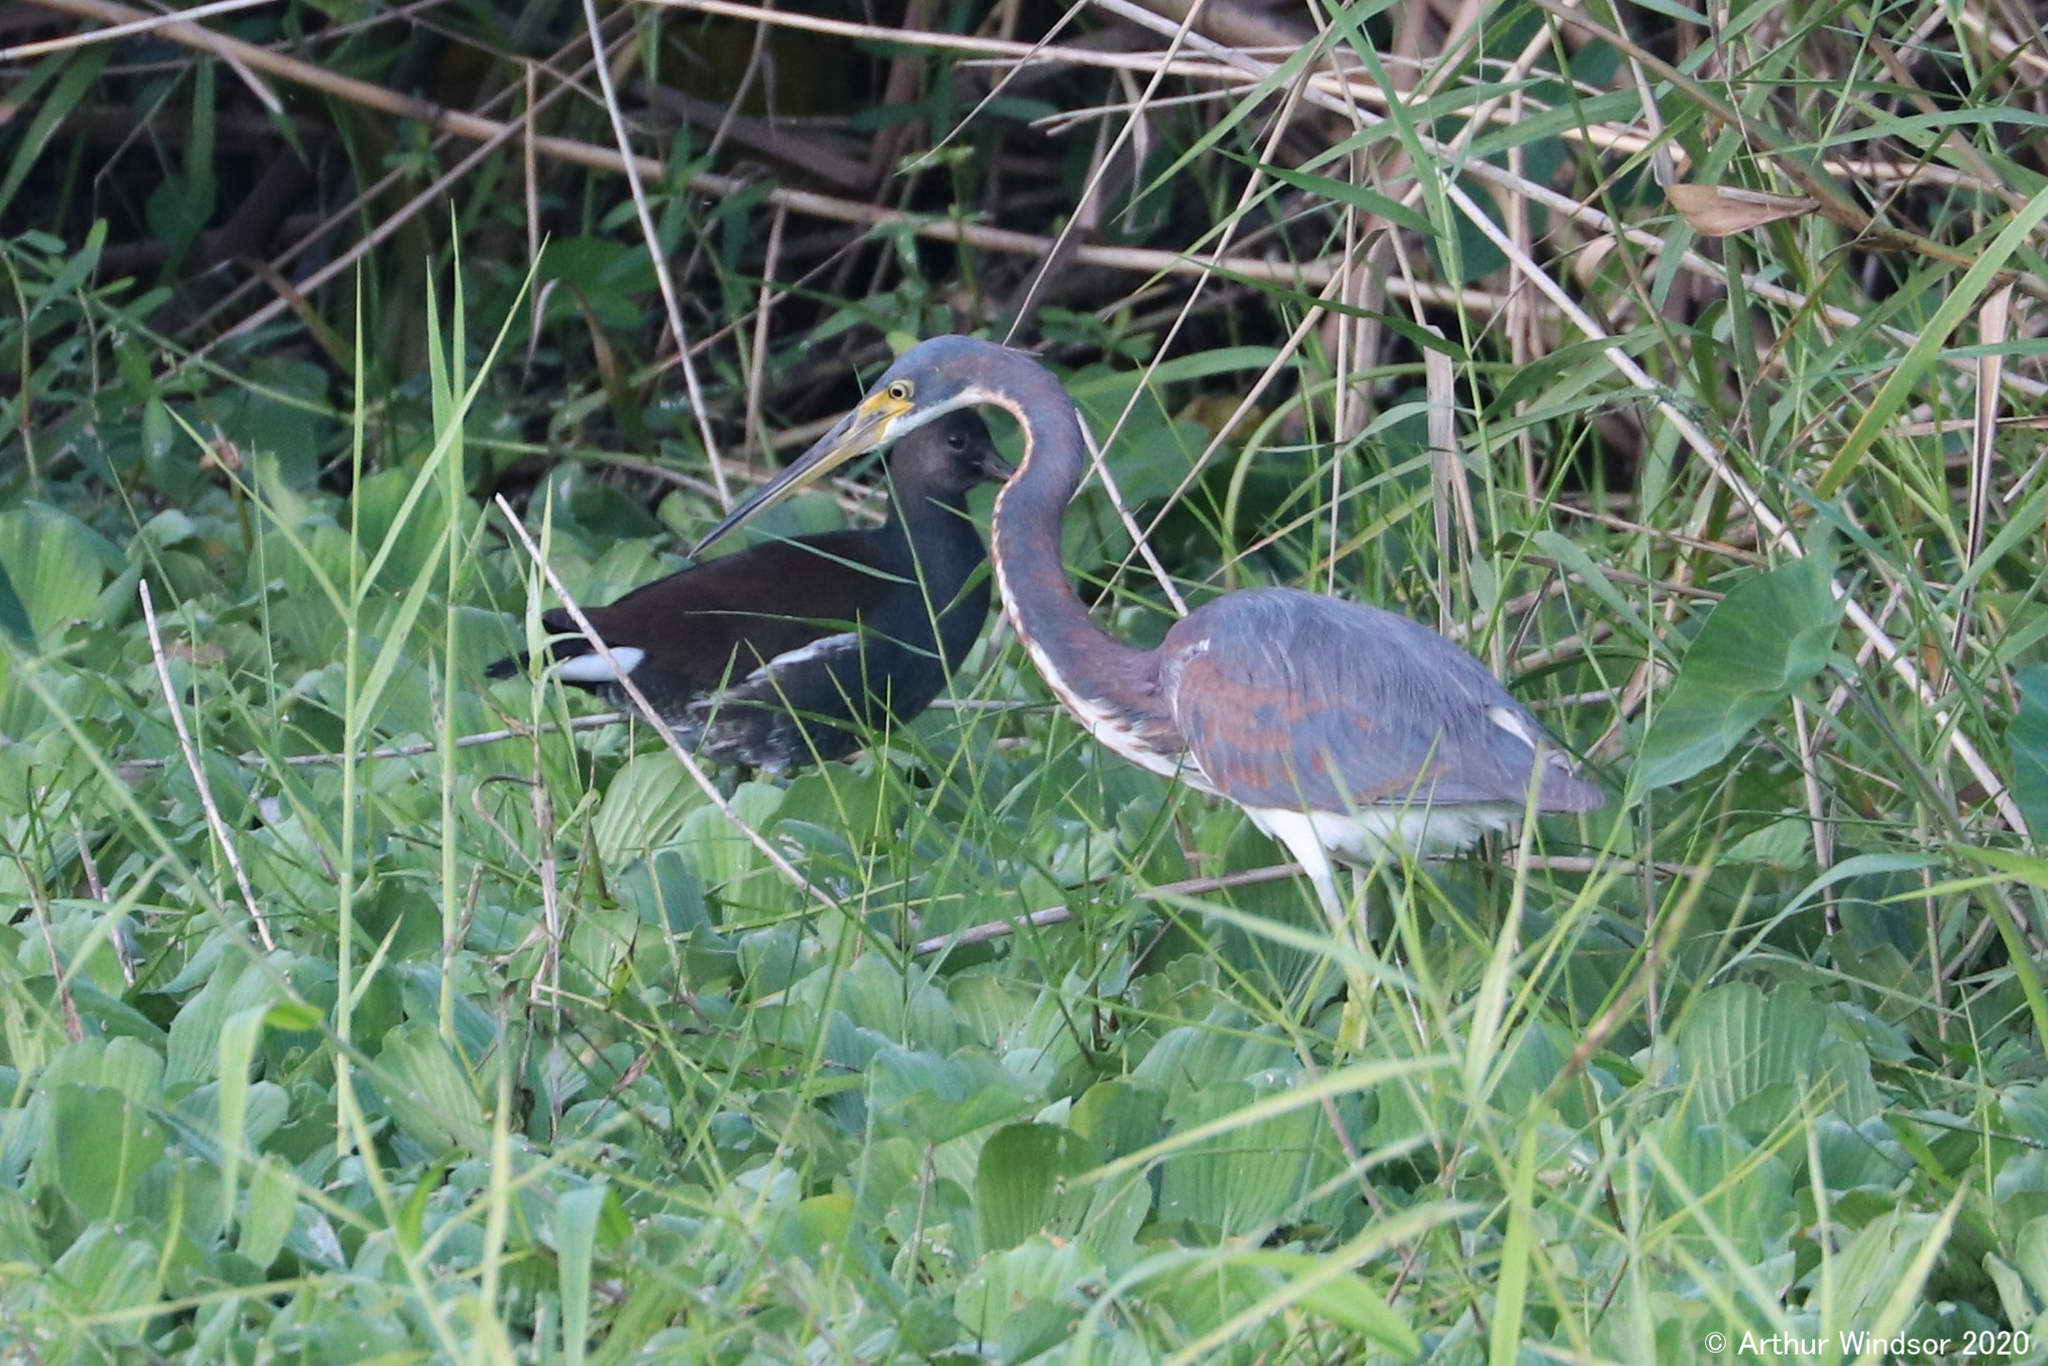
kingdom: Animalia
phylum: Chordata
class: Aves
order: Pelecaniformes
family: Ardeidae
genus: Egretta
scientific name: Egretta tricolor
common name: Tricolored heron
